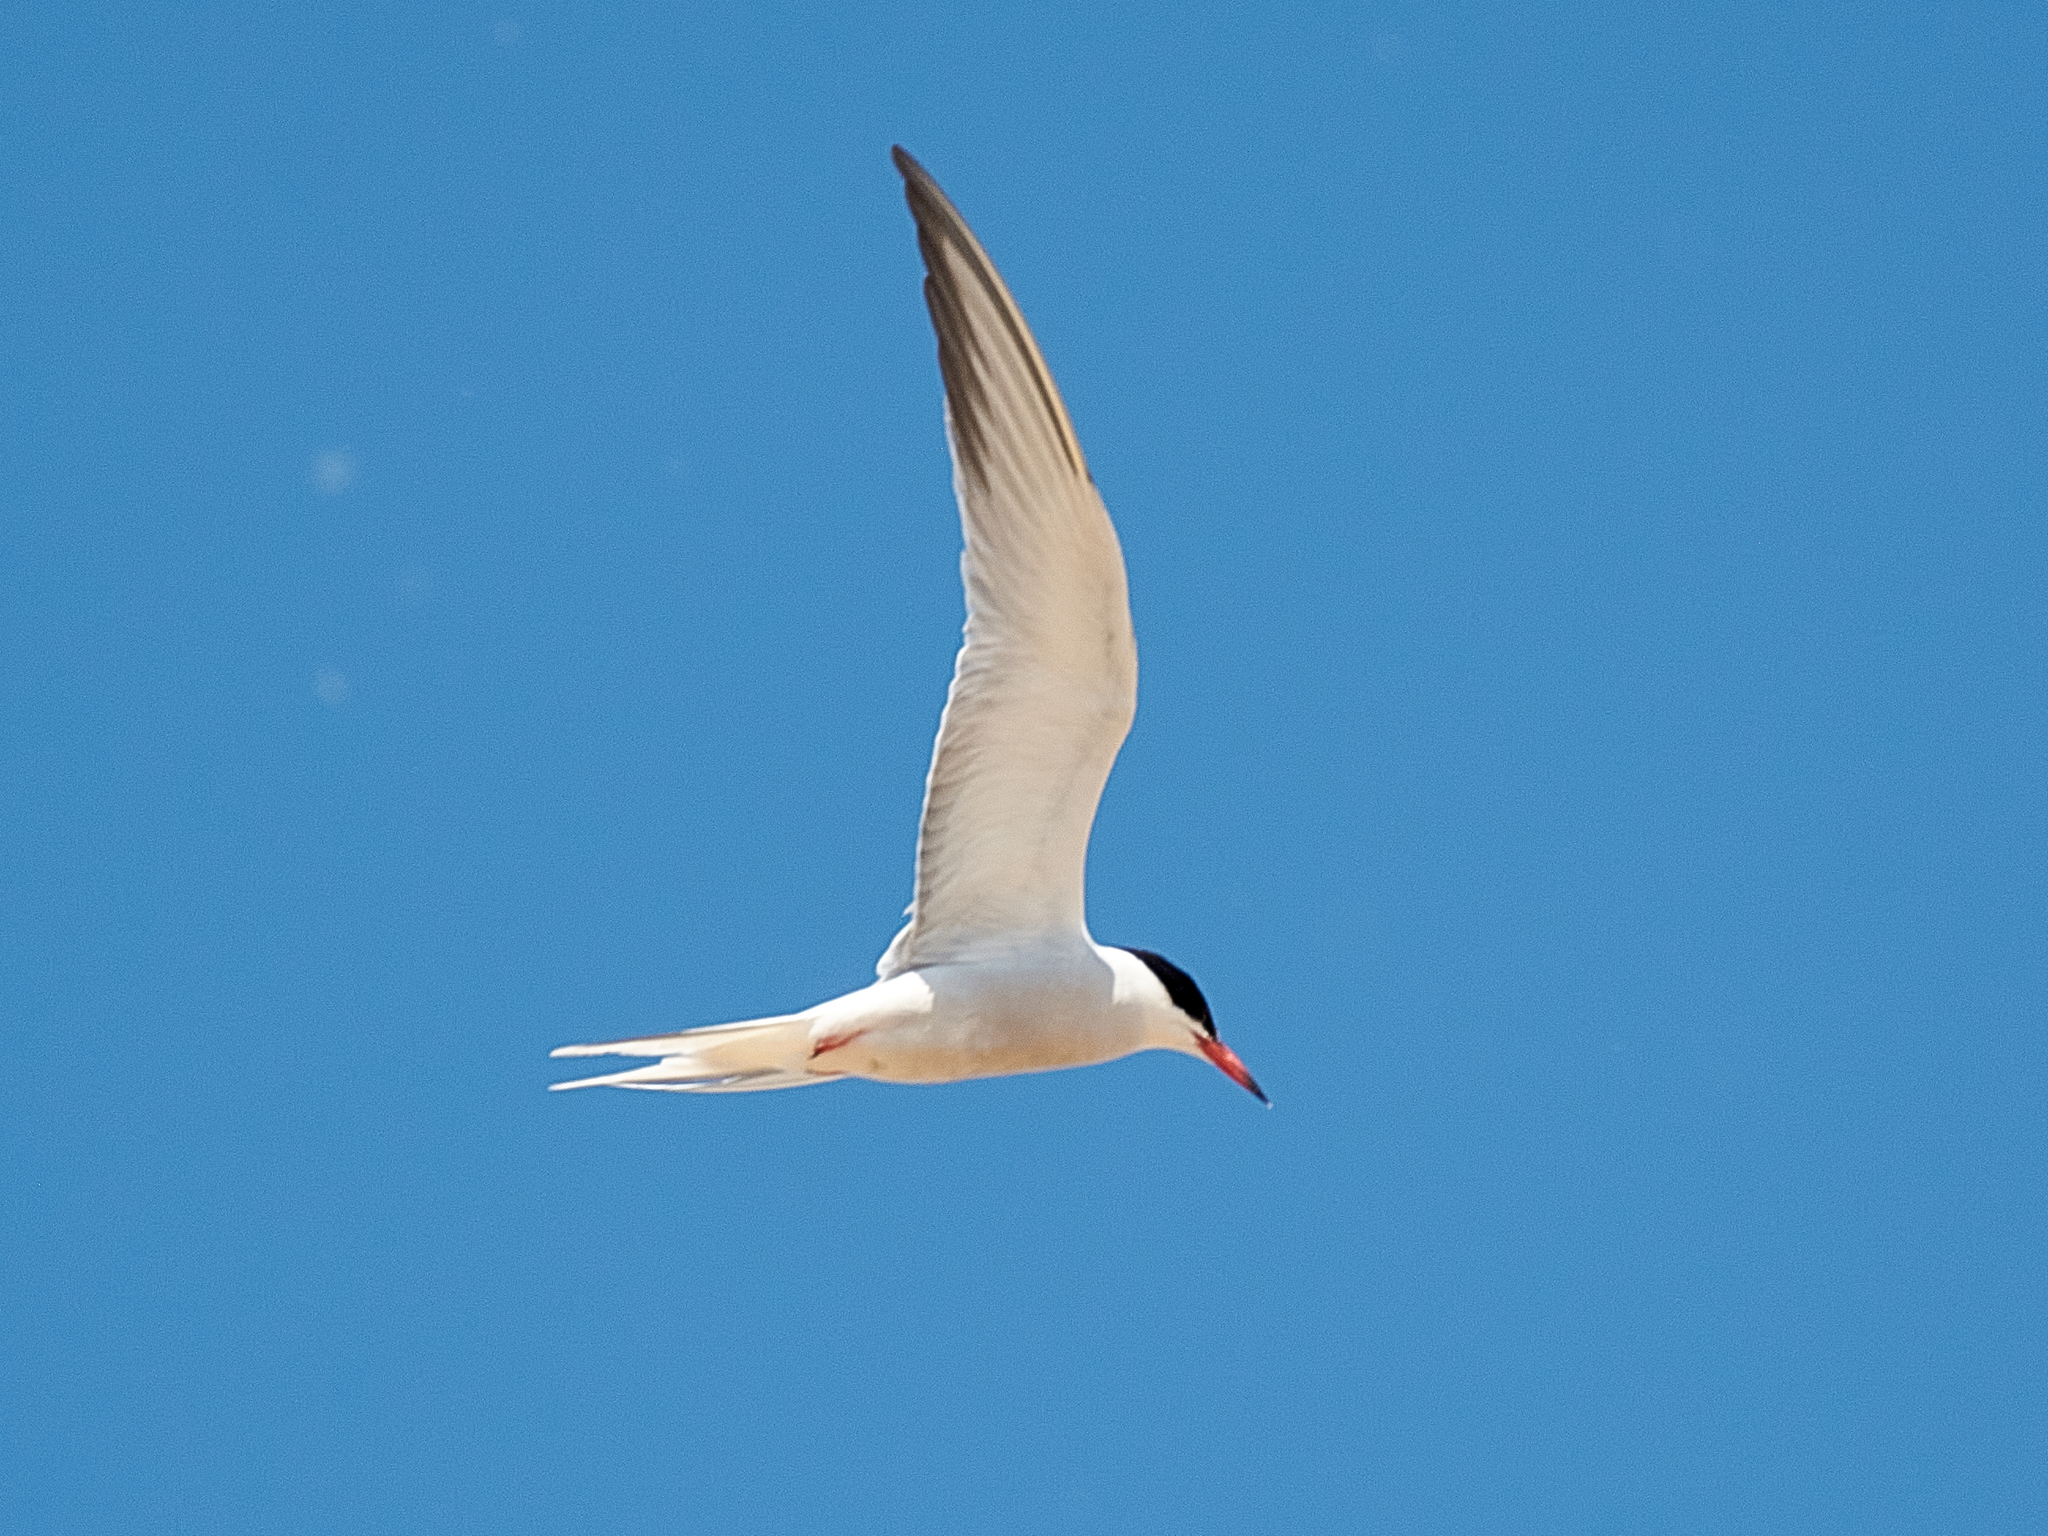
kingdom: Animalia
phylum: Chordata
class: Aves
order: Charadriiformes
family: Laridae
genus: Sterna
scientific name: Sterna hirundo
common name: Common tern
